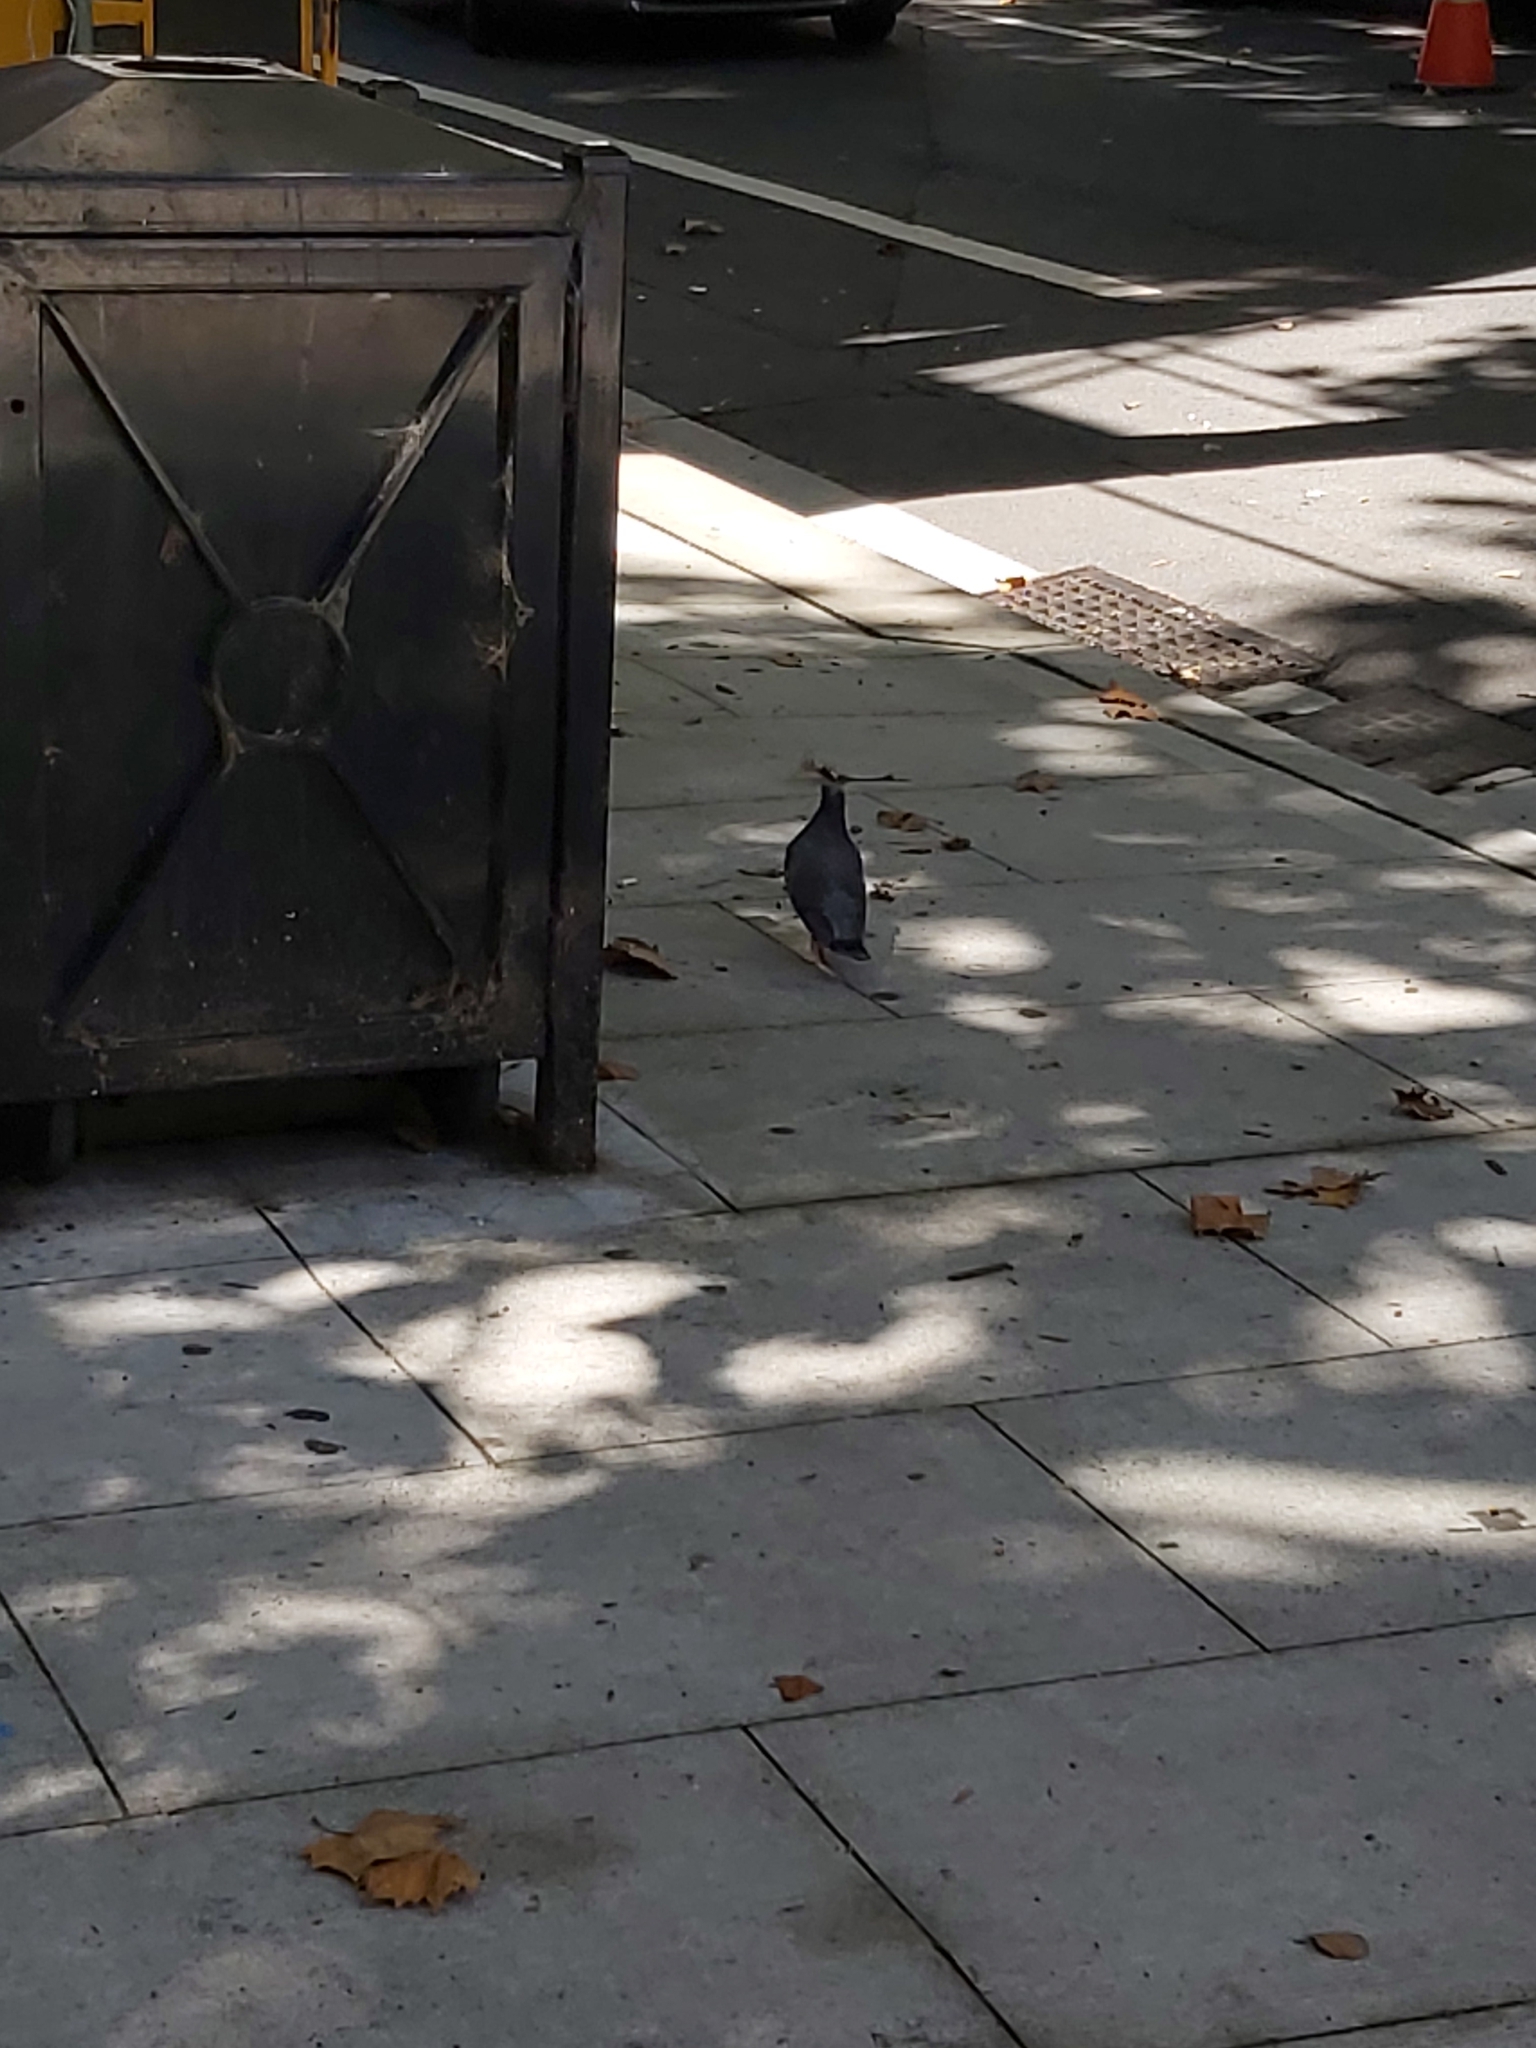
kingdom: Animalia
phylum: Chordata
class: Aves
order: Columbiformes
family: Columbidae
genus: Columba
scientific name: Columba livia
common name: Rock pigeon
